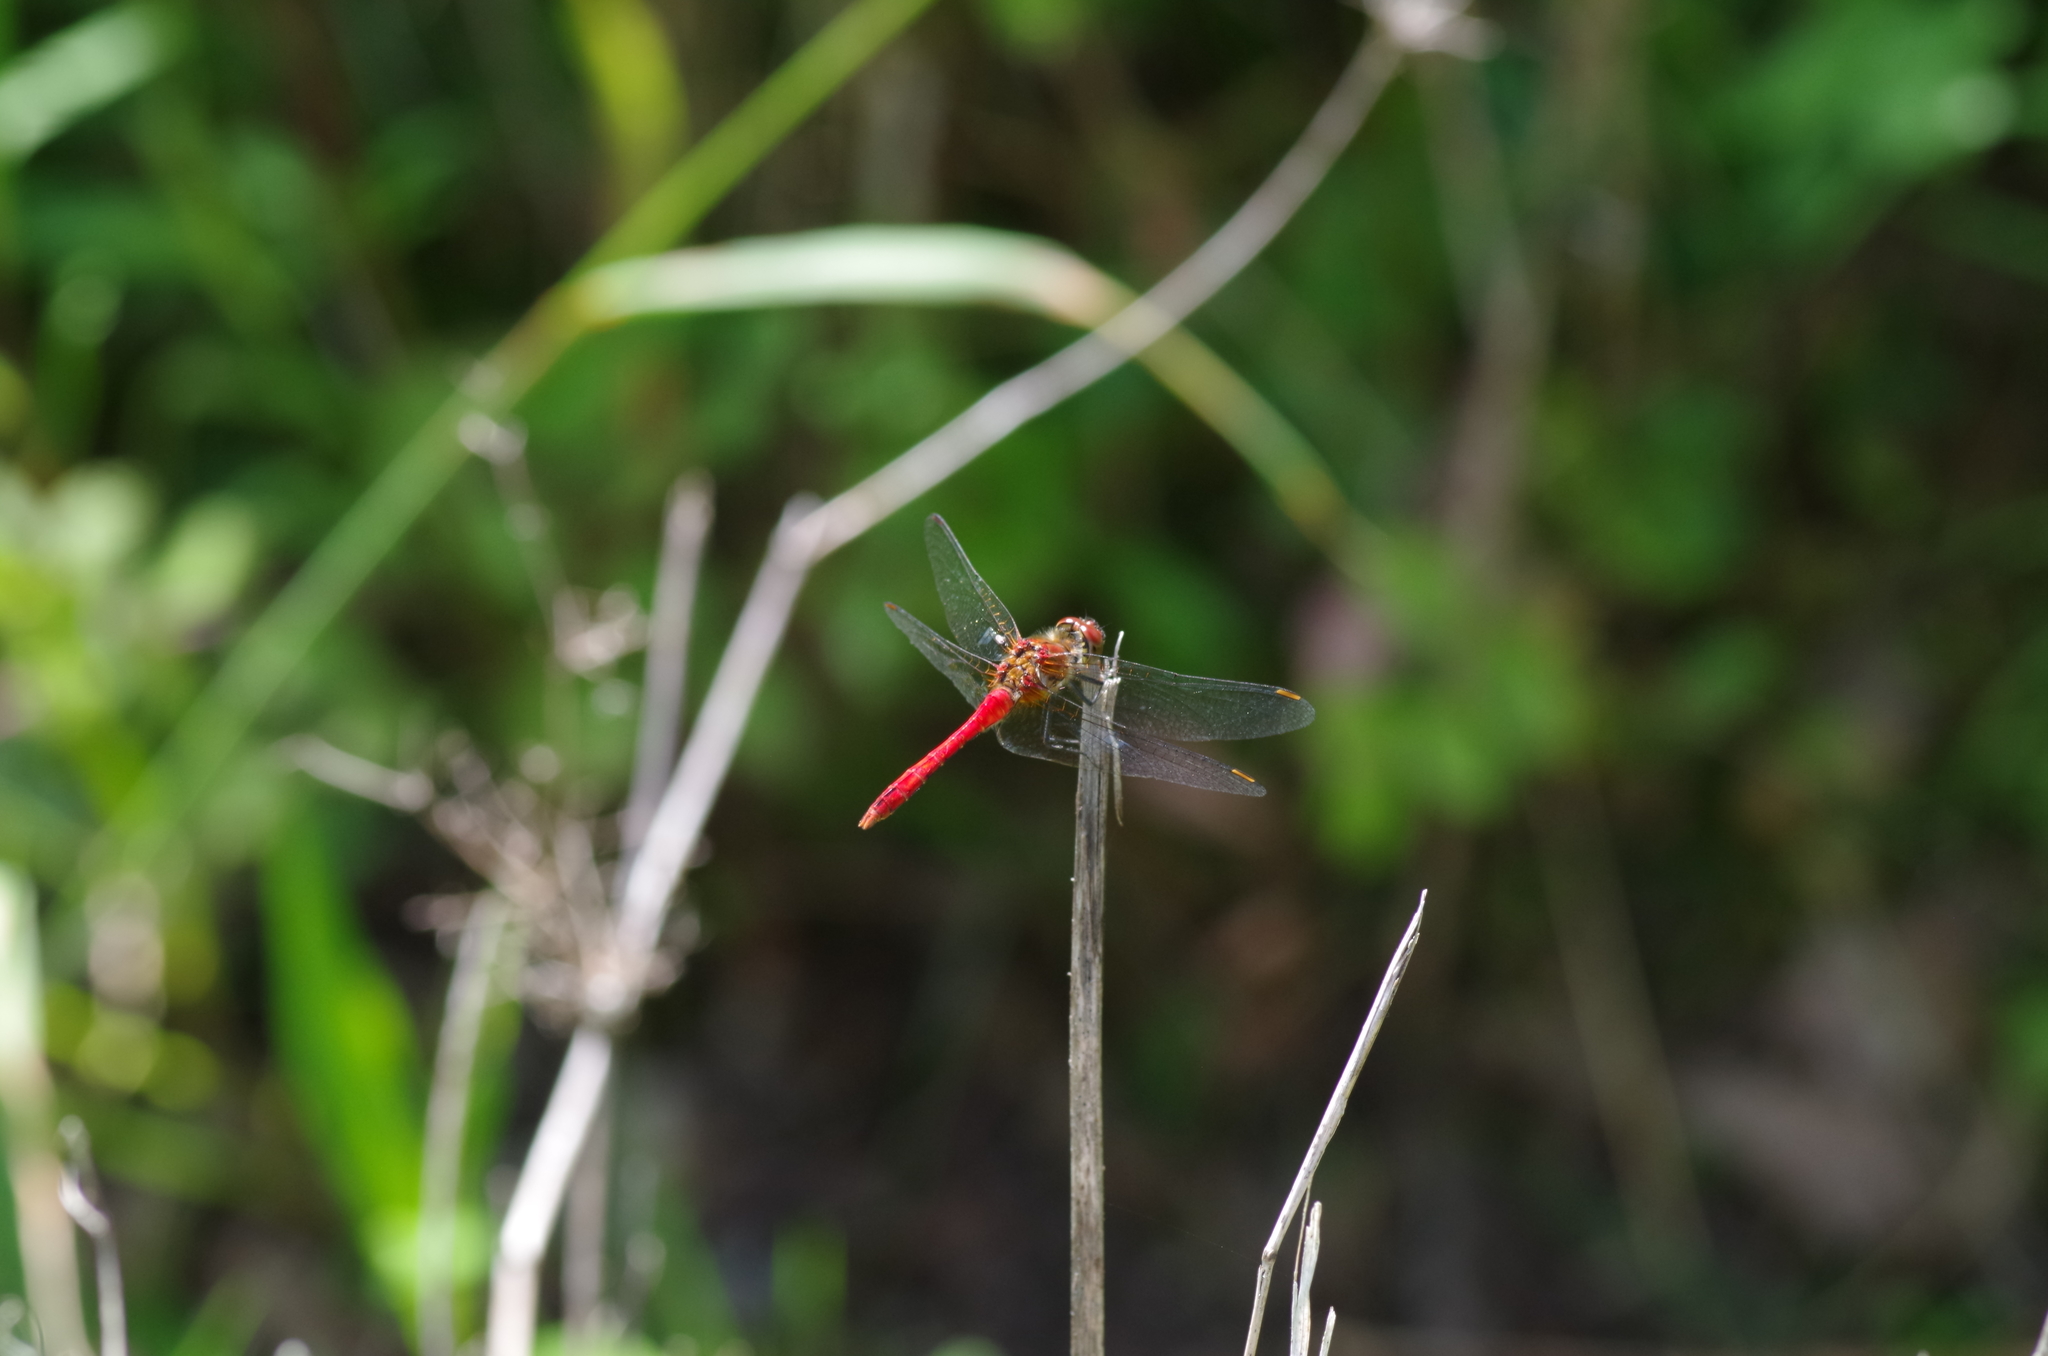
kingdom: Animalia
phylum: Arthropoda
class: Insecta
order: Odonata
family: Libellulidae
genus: Sympetrum
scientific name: Sympetrum sanguineum
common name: Ruddy darter
